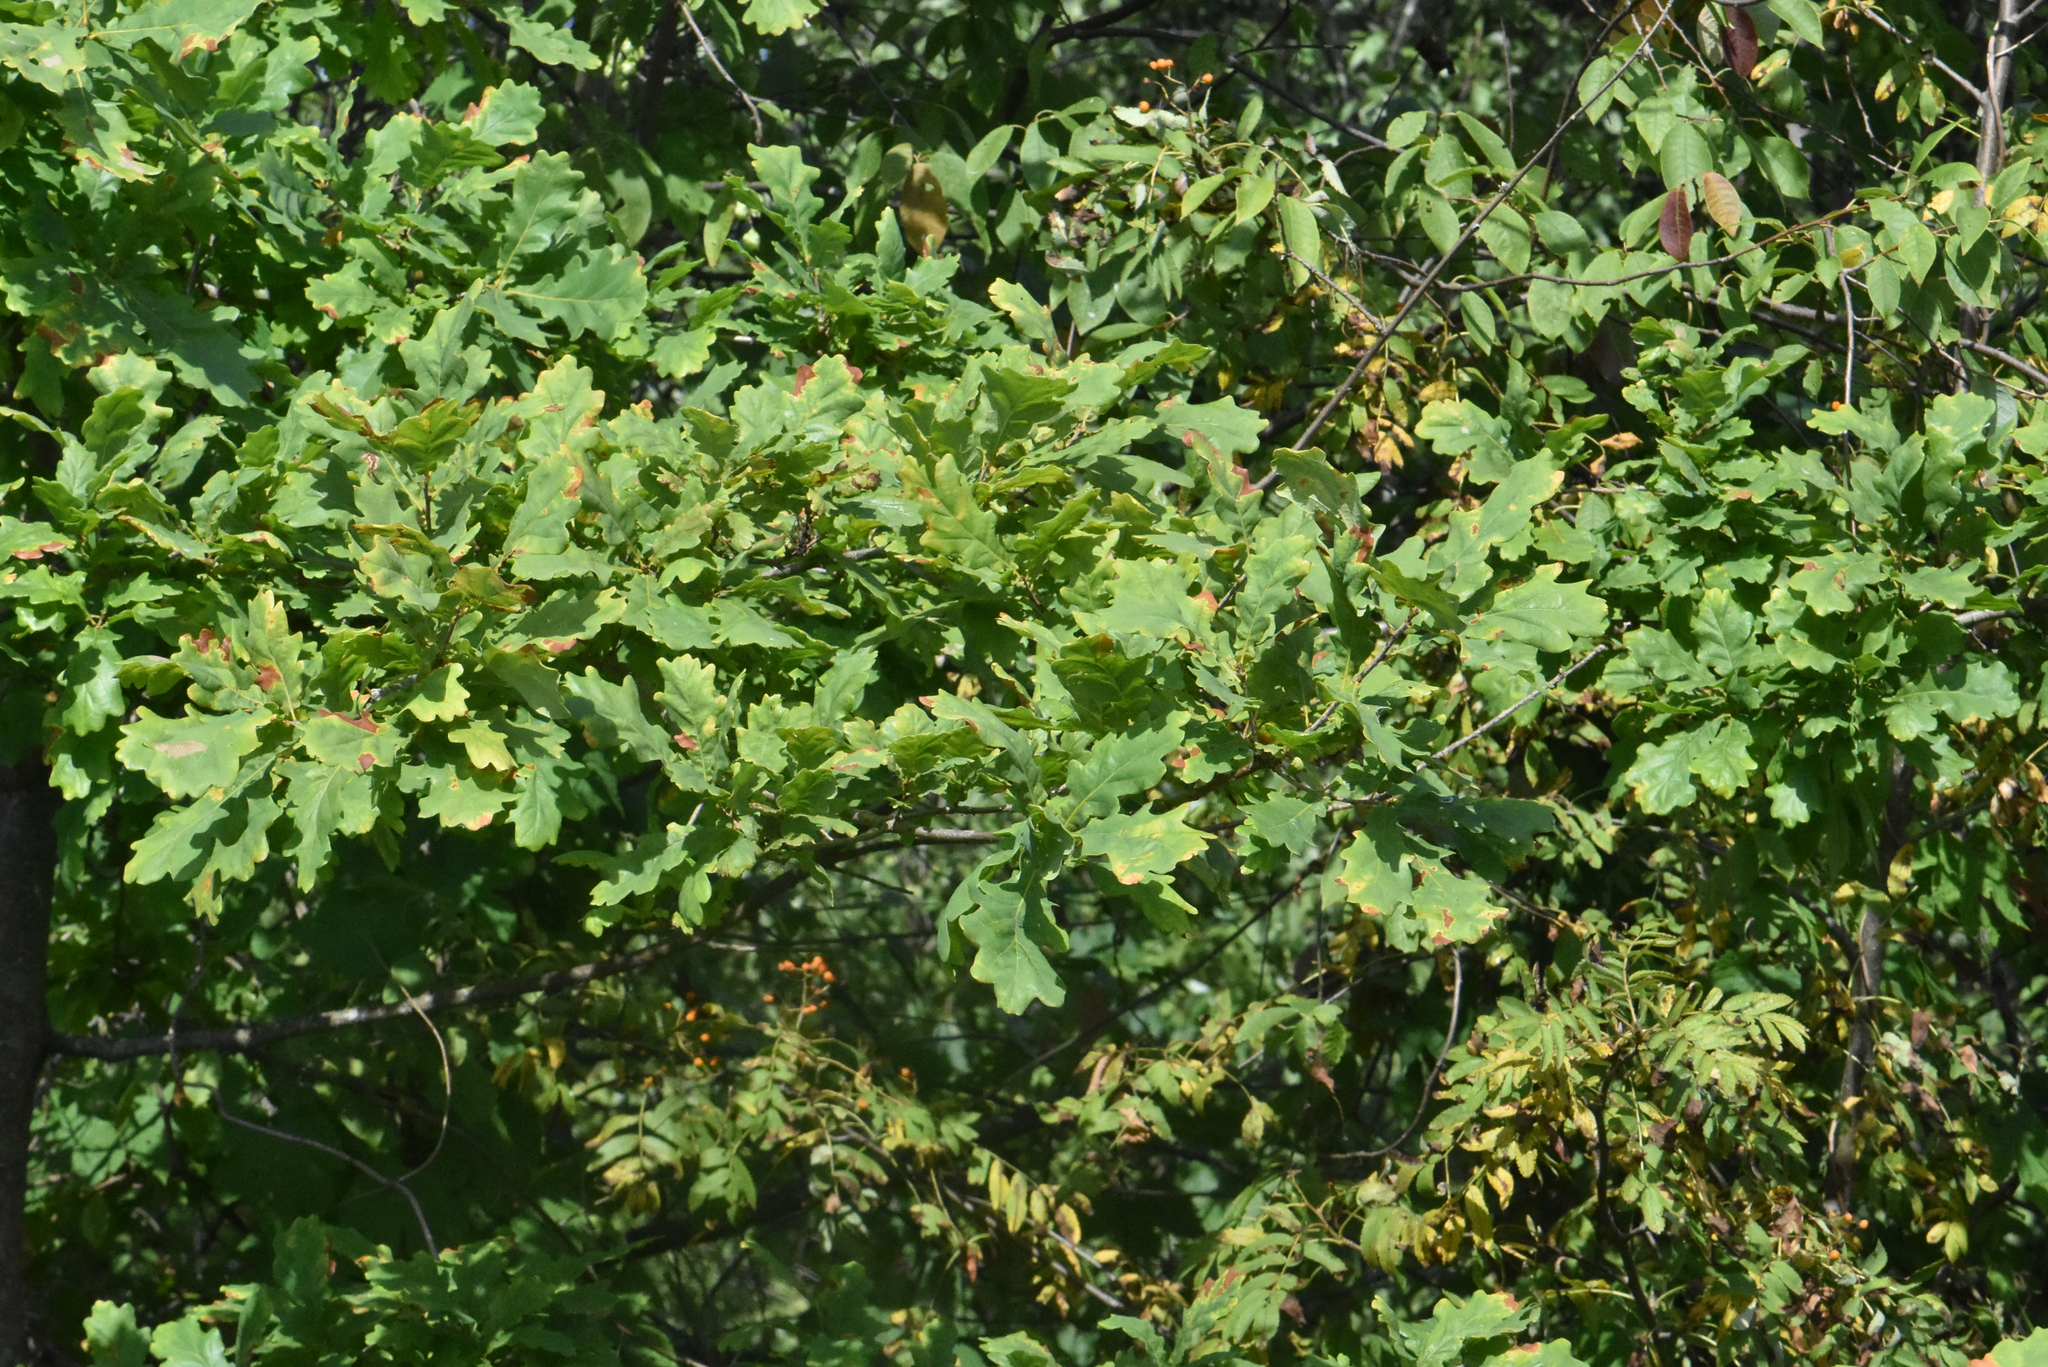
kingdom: Plantae
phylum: Tracheophyta
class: Magnoliopsida
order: Fagales
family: Fagaceae
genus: Quercus
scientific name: Quercus robur
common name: Pedunculate oak
